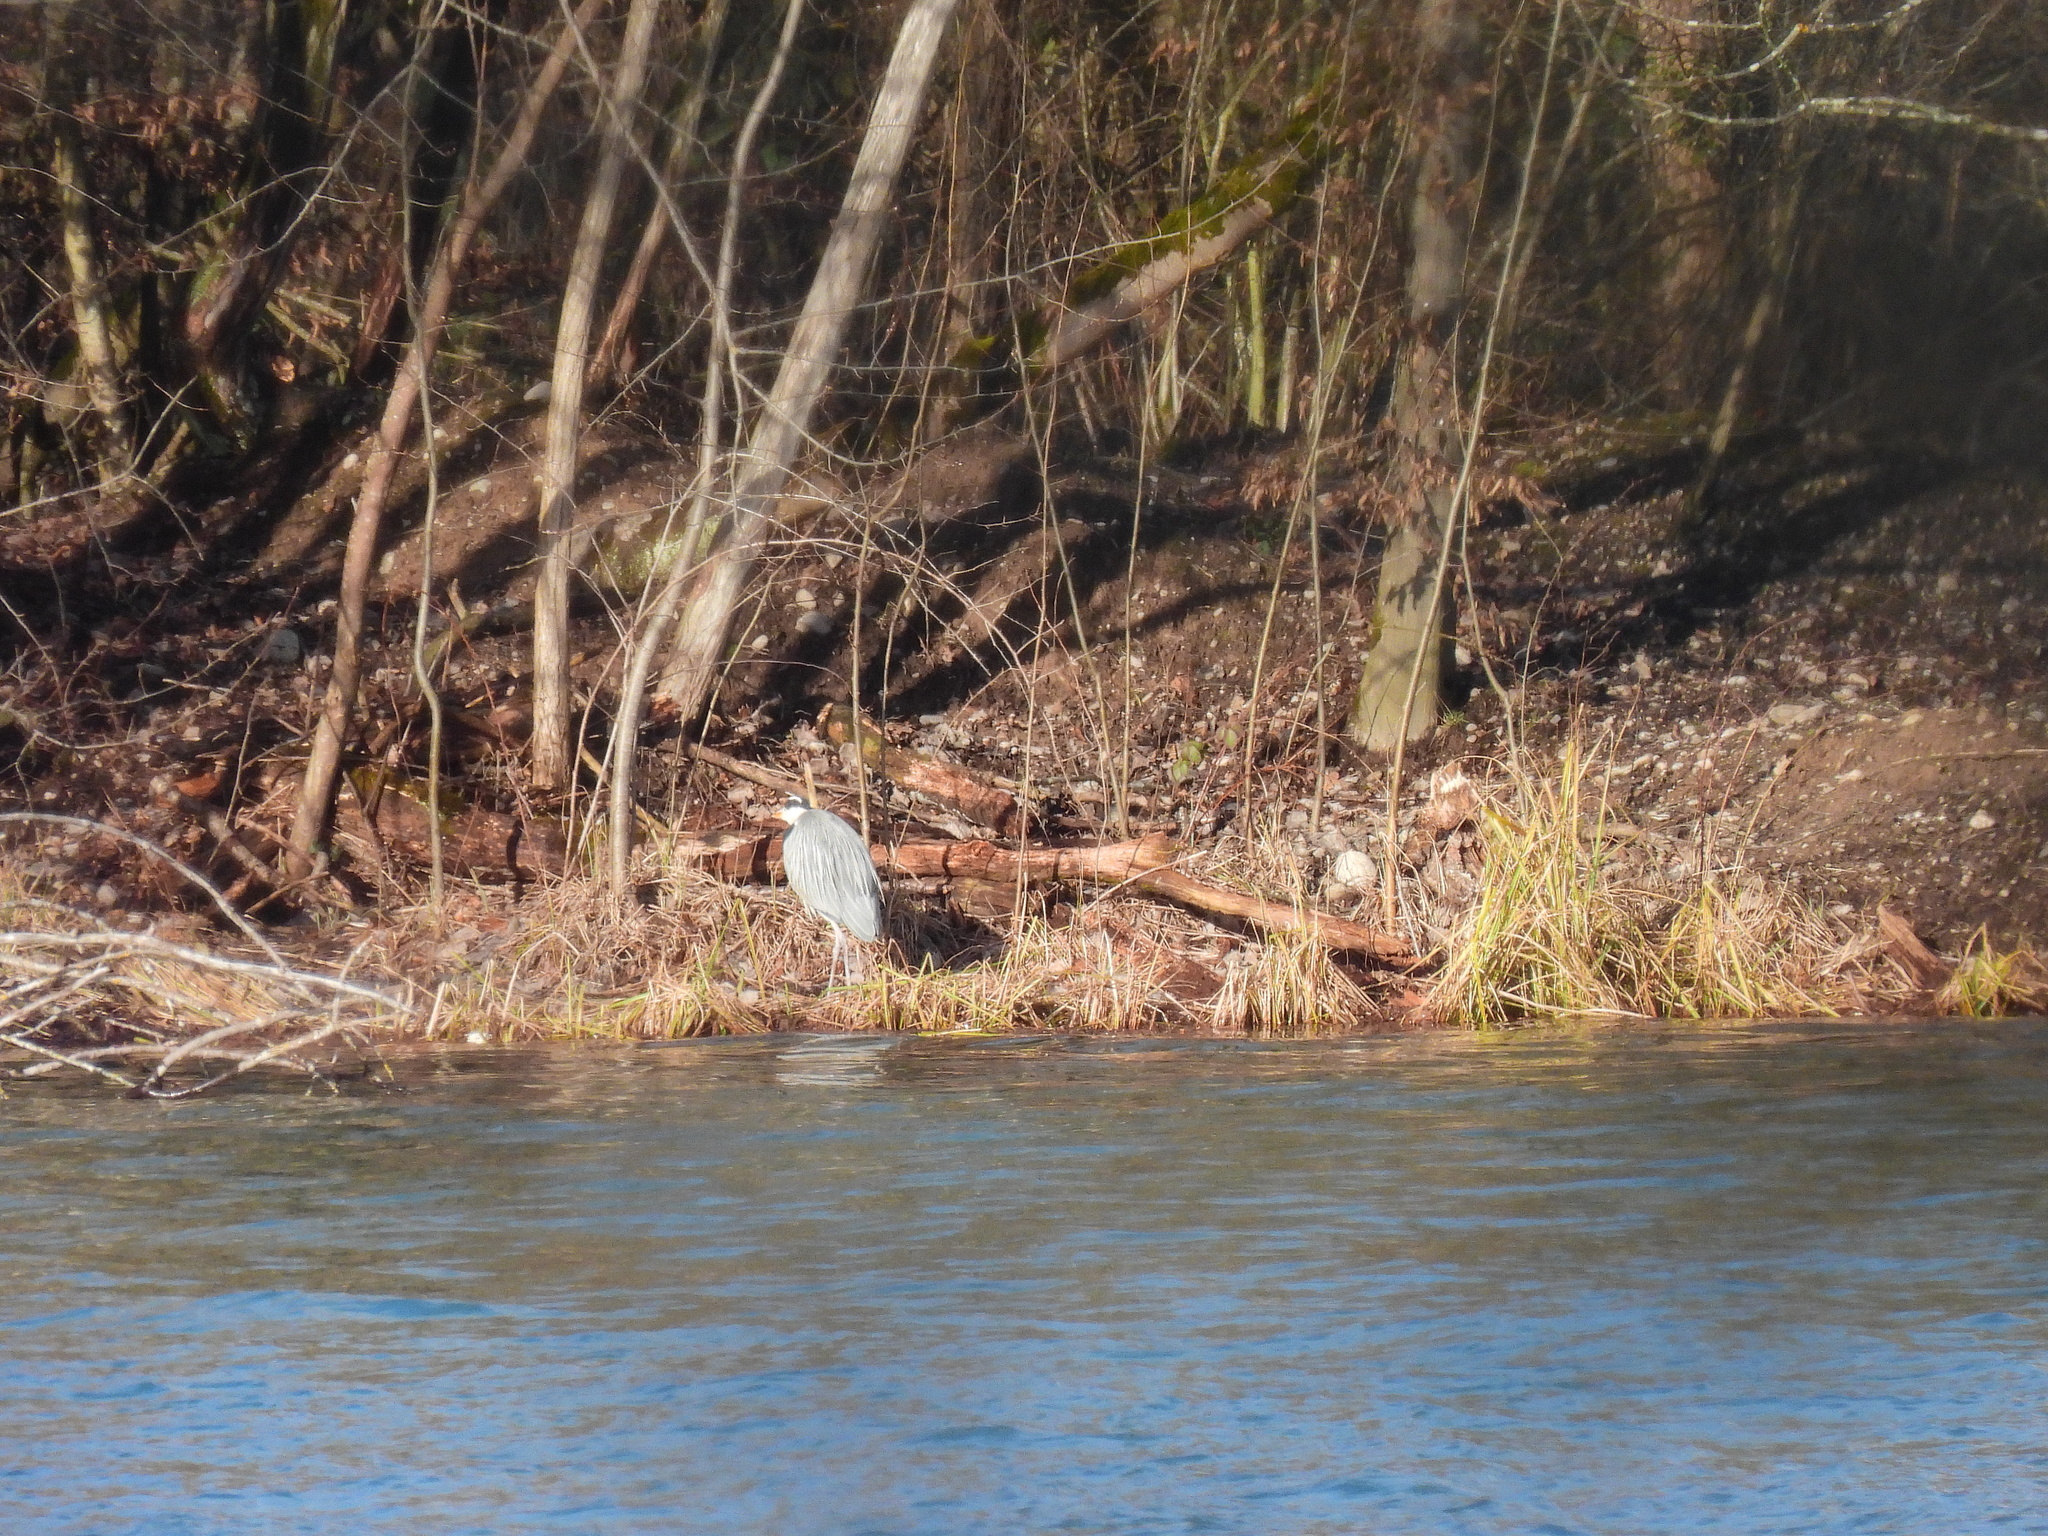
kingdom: Animalia
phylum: Chordata
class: Aves
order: Pelecaniformes
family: Ardeidae
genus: Ardea
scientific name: Ardea cinerea
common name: Grey heron
